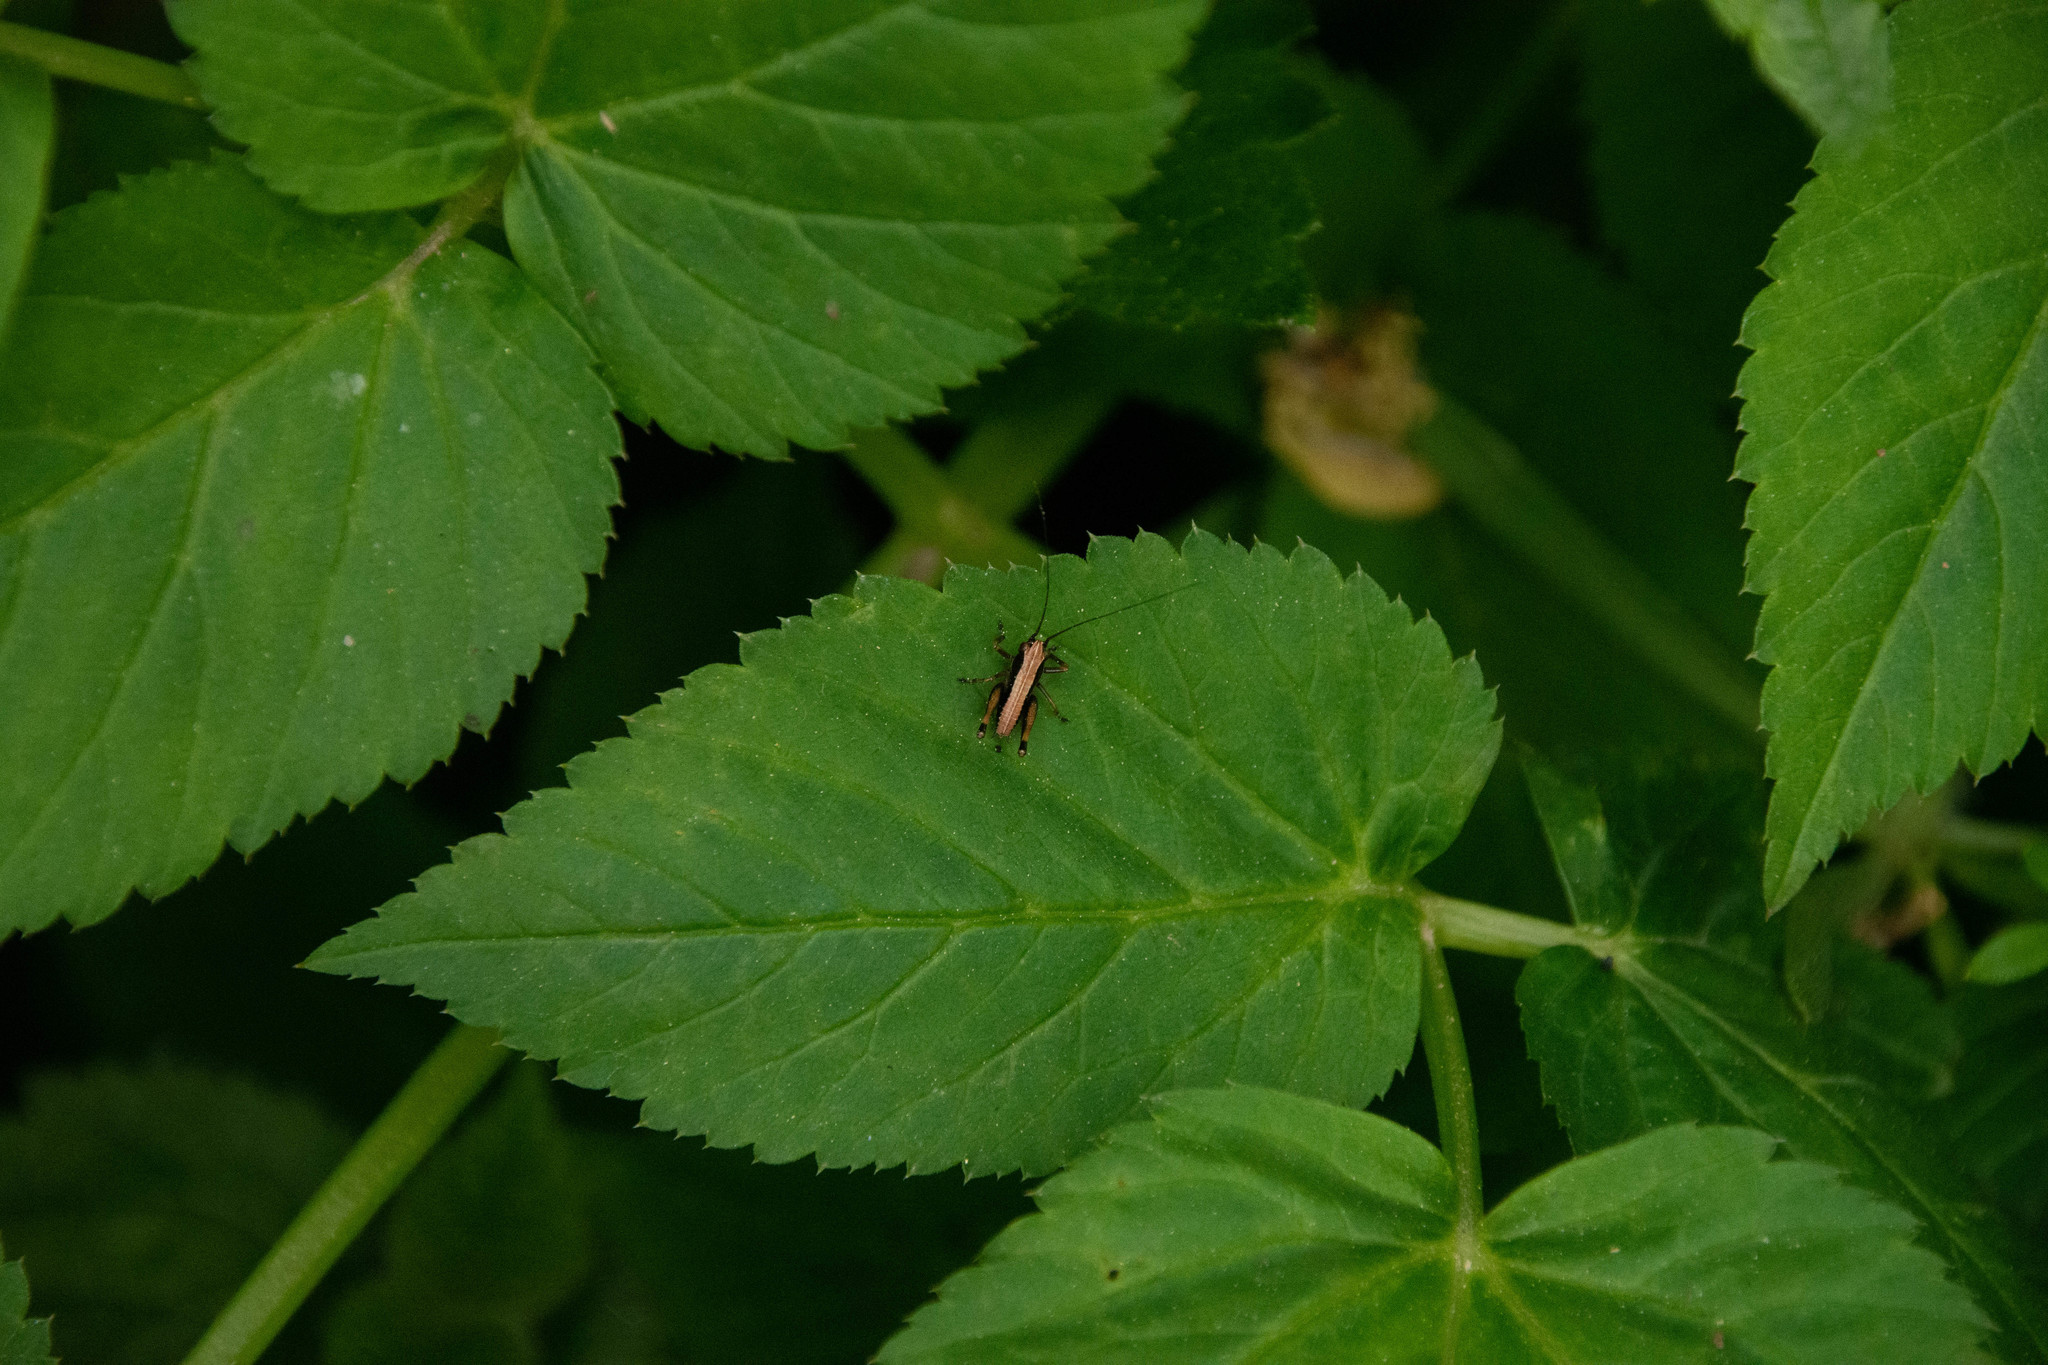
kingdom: Animalia
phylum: Arthropoda
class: Insecta
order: Orthoptera
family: Tettigoniidae
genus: Pholidoptera
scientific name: Pholidoptera griseoaptera
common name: Dark bush-cricket
